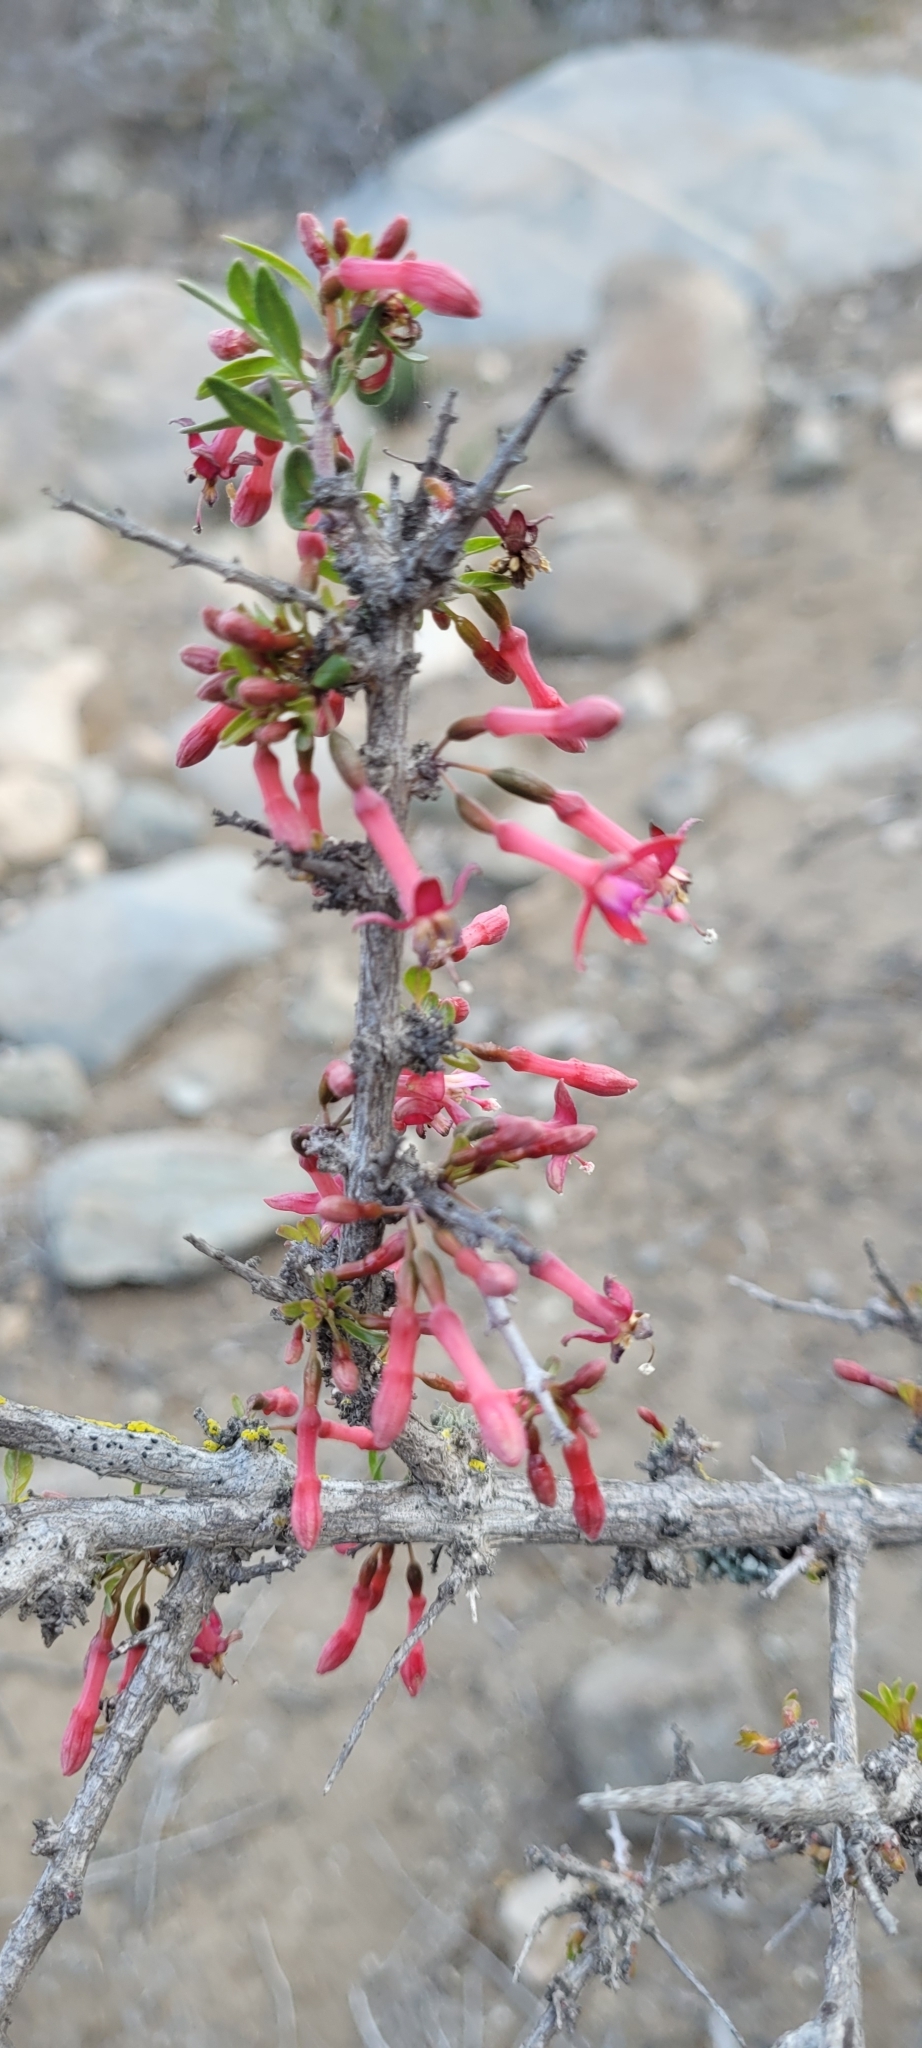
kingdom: Plantae
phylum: Tracheophyta
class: Magnoliopsida
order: Myrtales
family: Onagraceae
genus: Fuchsia
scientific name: Fuchsia lycioides
